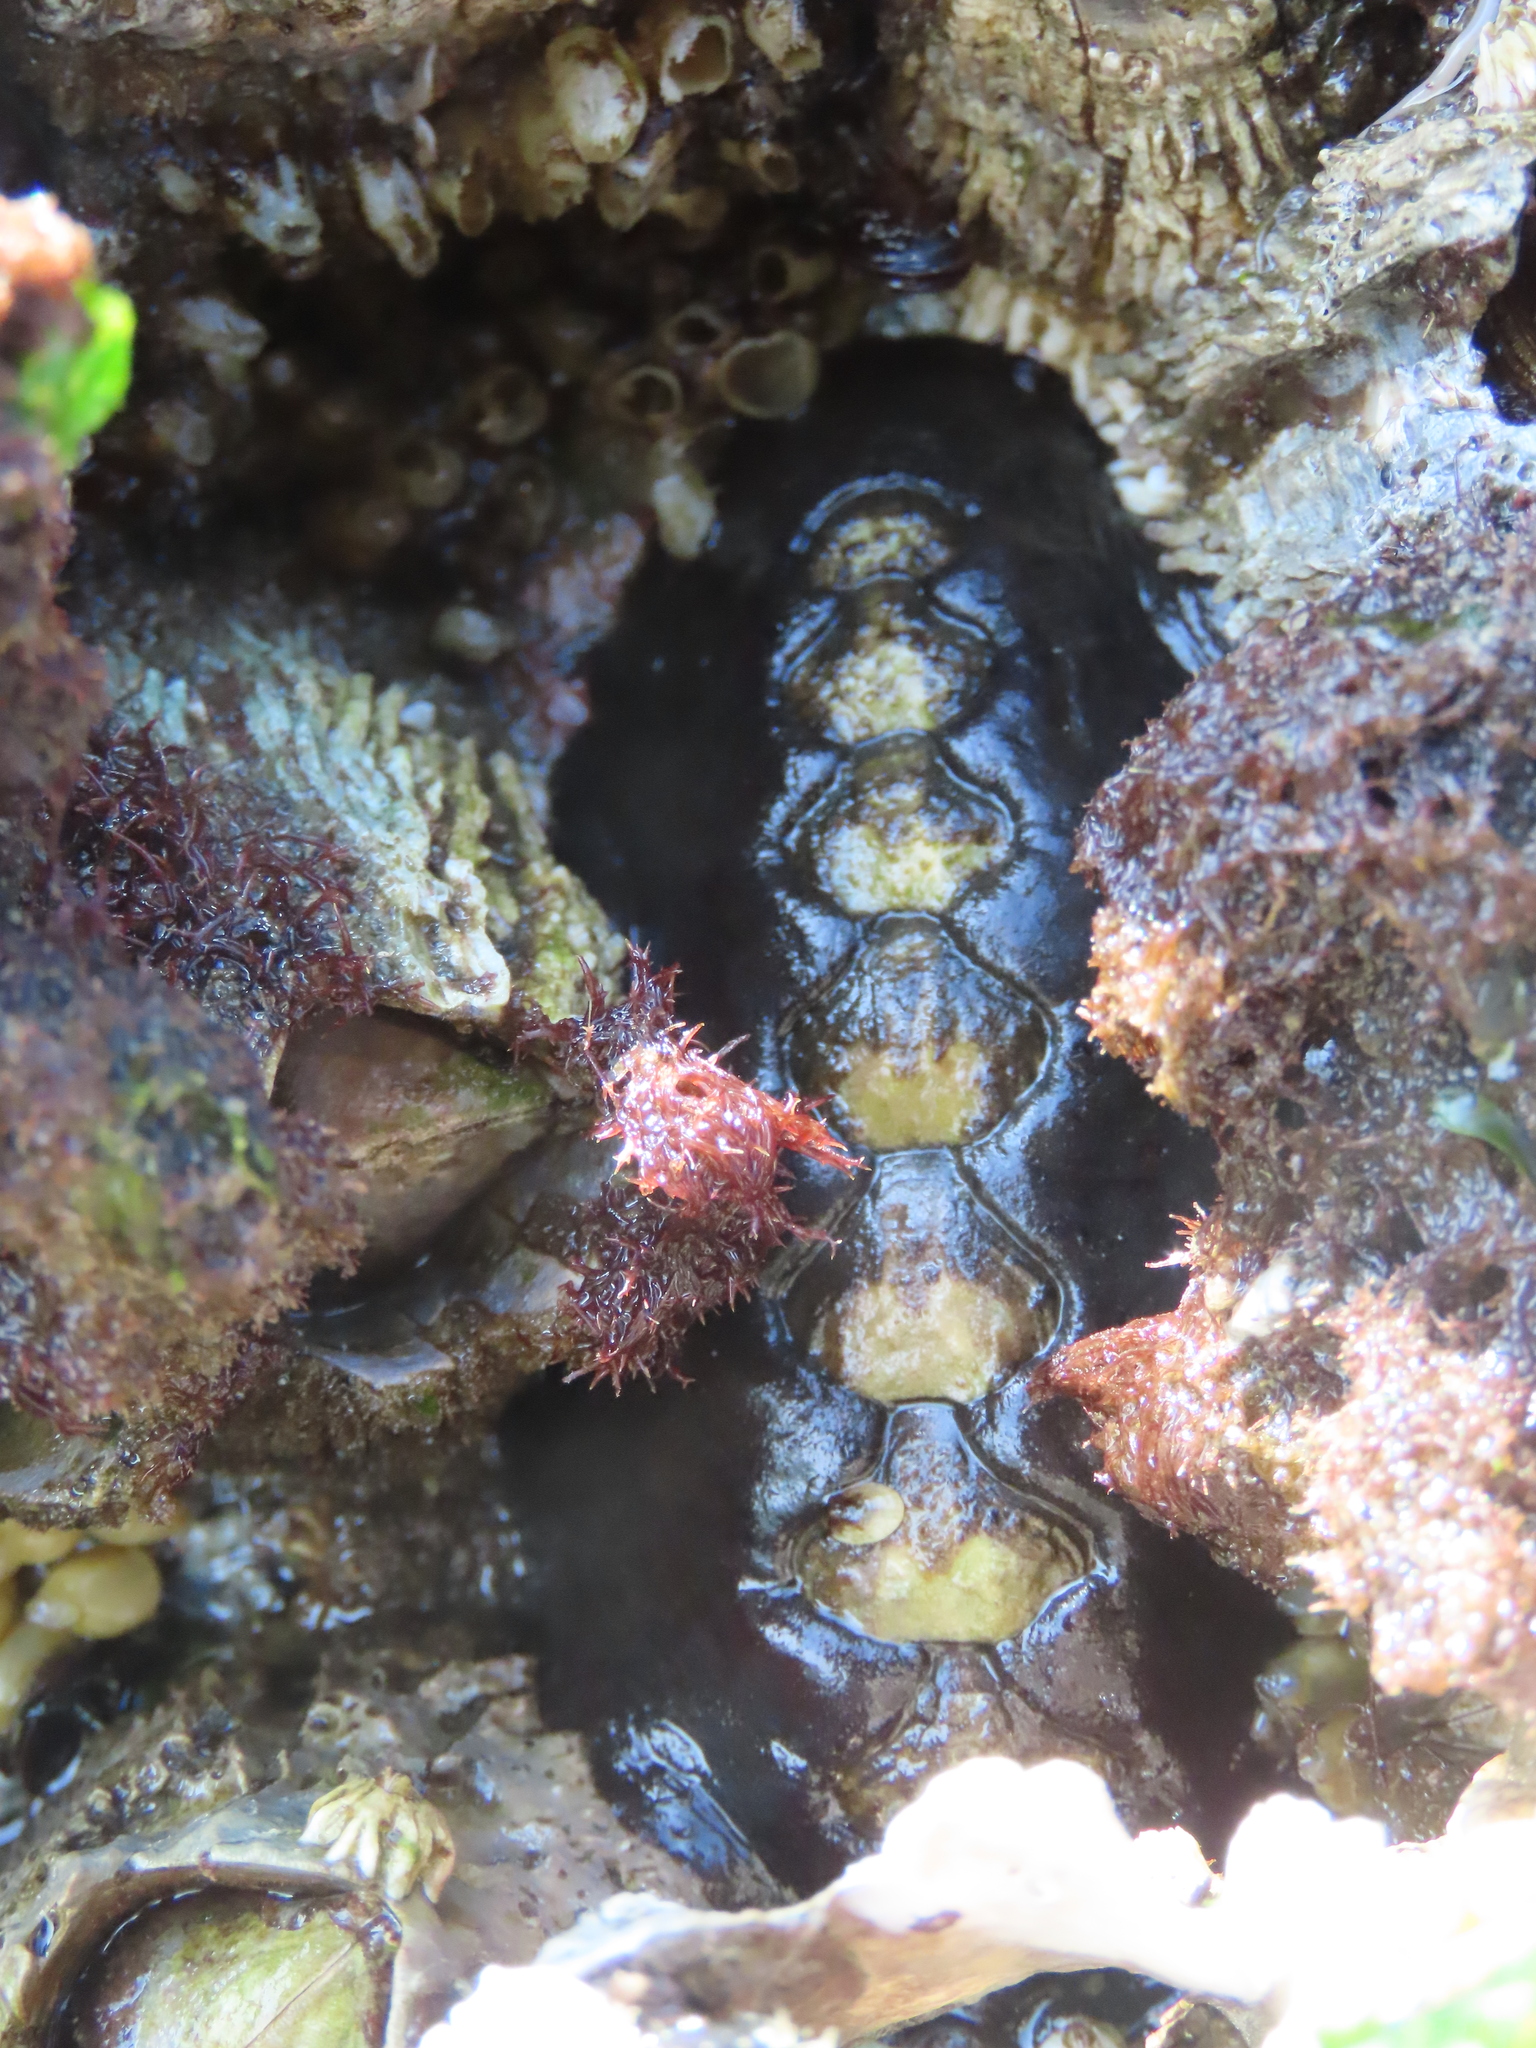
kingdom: Animalia
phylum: Mollusca
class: Polyplacophora
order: Chitonida
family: Mopaliidae
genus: Katharina
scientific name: Katharina tunicata
